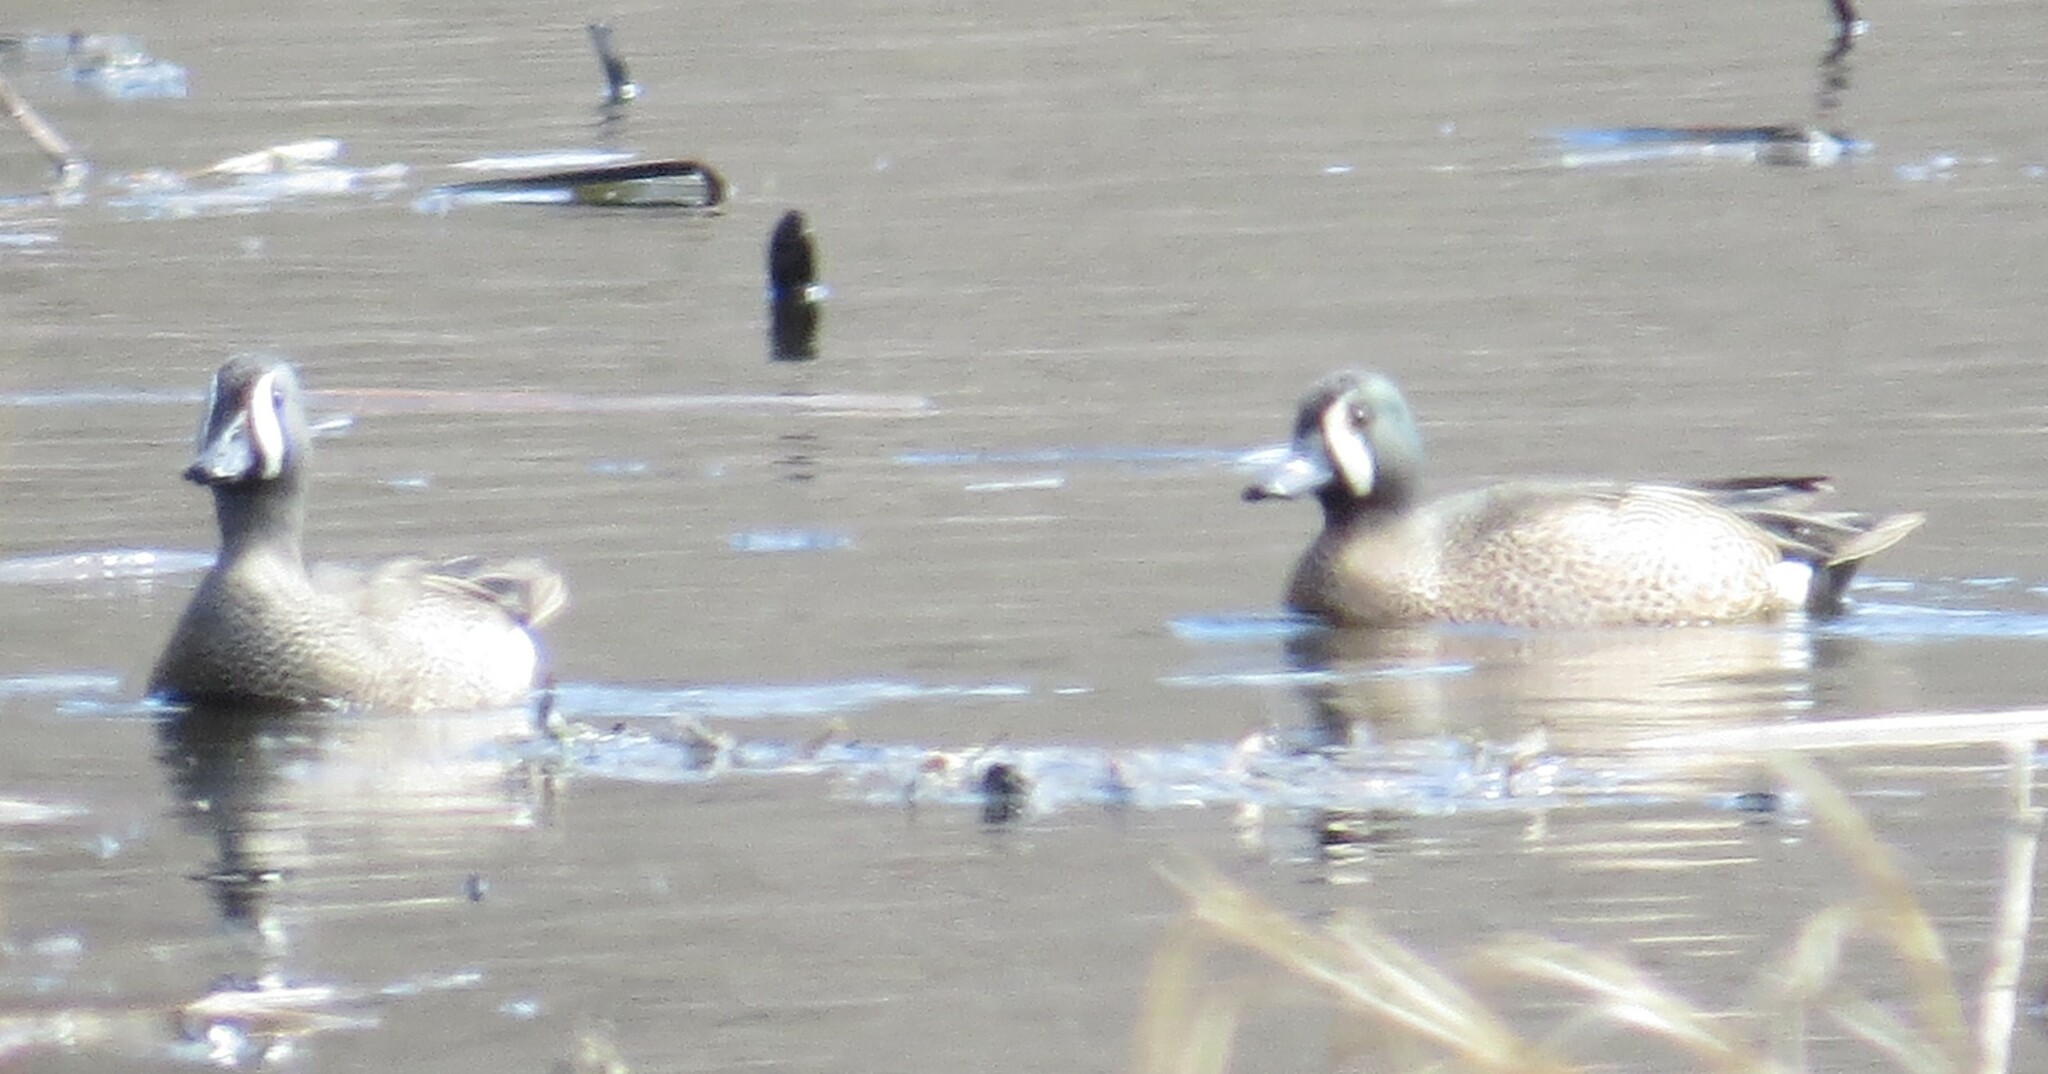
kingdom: Animalia
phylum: Chordata
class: Aves
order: Anseriformes
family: Anatidae
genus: Spatula
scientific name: Spatula discors
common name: Blue-winged teal
